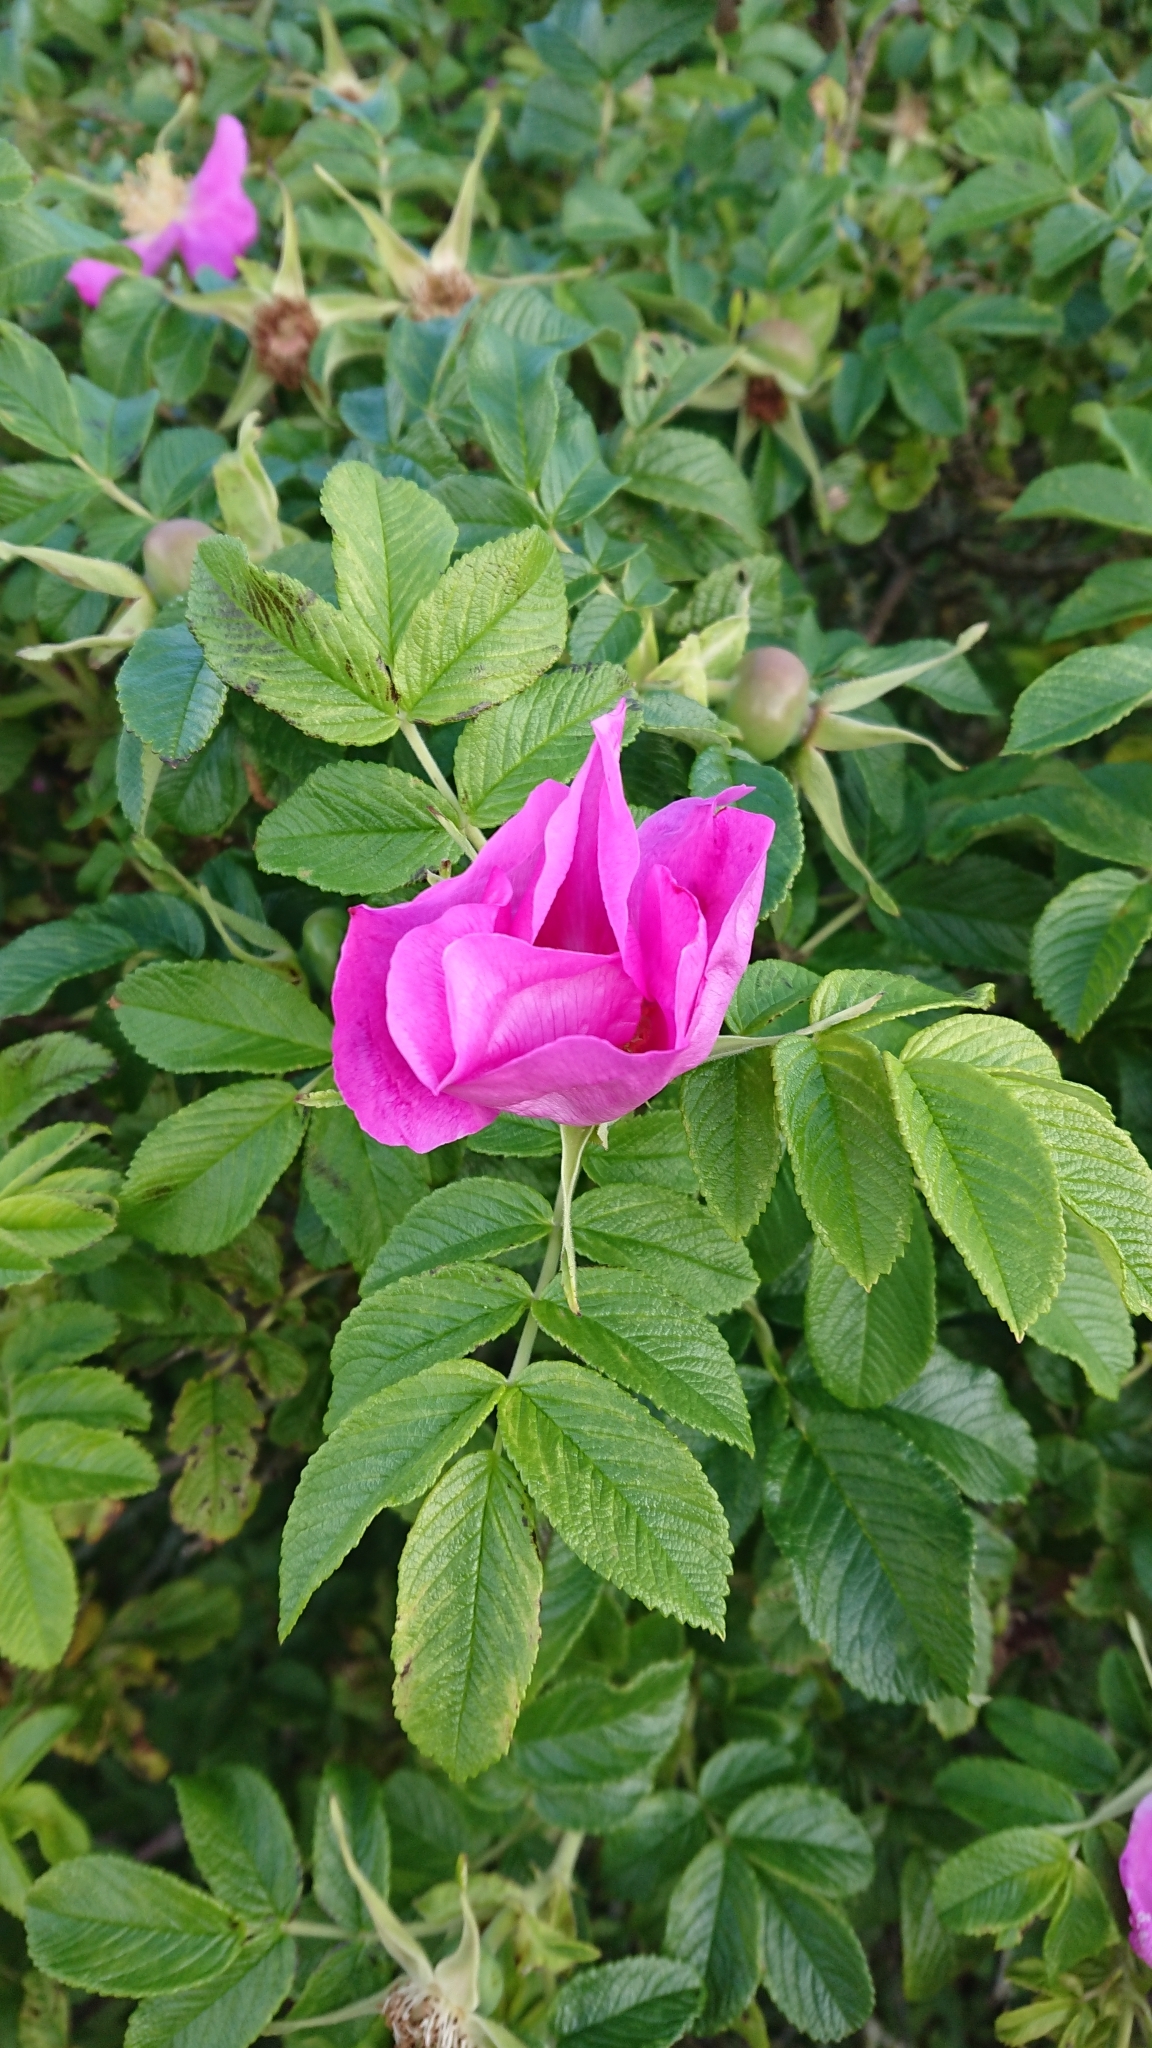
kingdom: Plantae
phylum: Tracheophyta
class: Magnoliopsida
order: Rosales
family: Rosaceae
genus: Rosa
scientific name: Rosa rugosa
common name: Japanese rose
